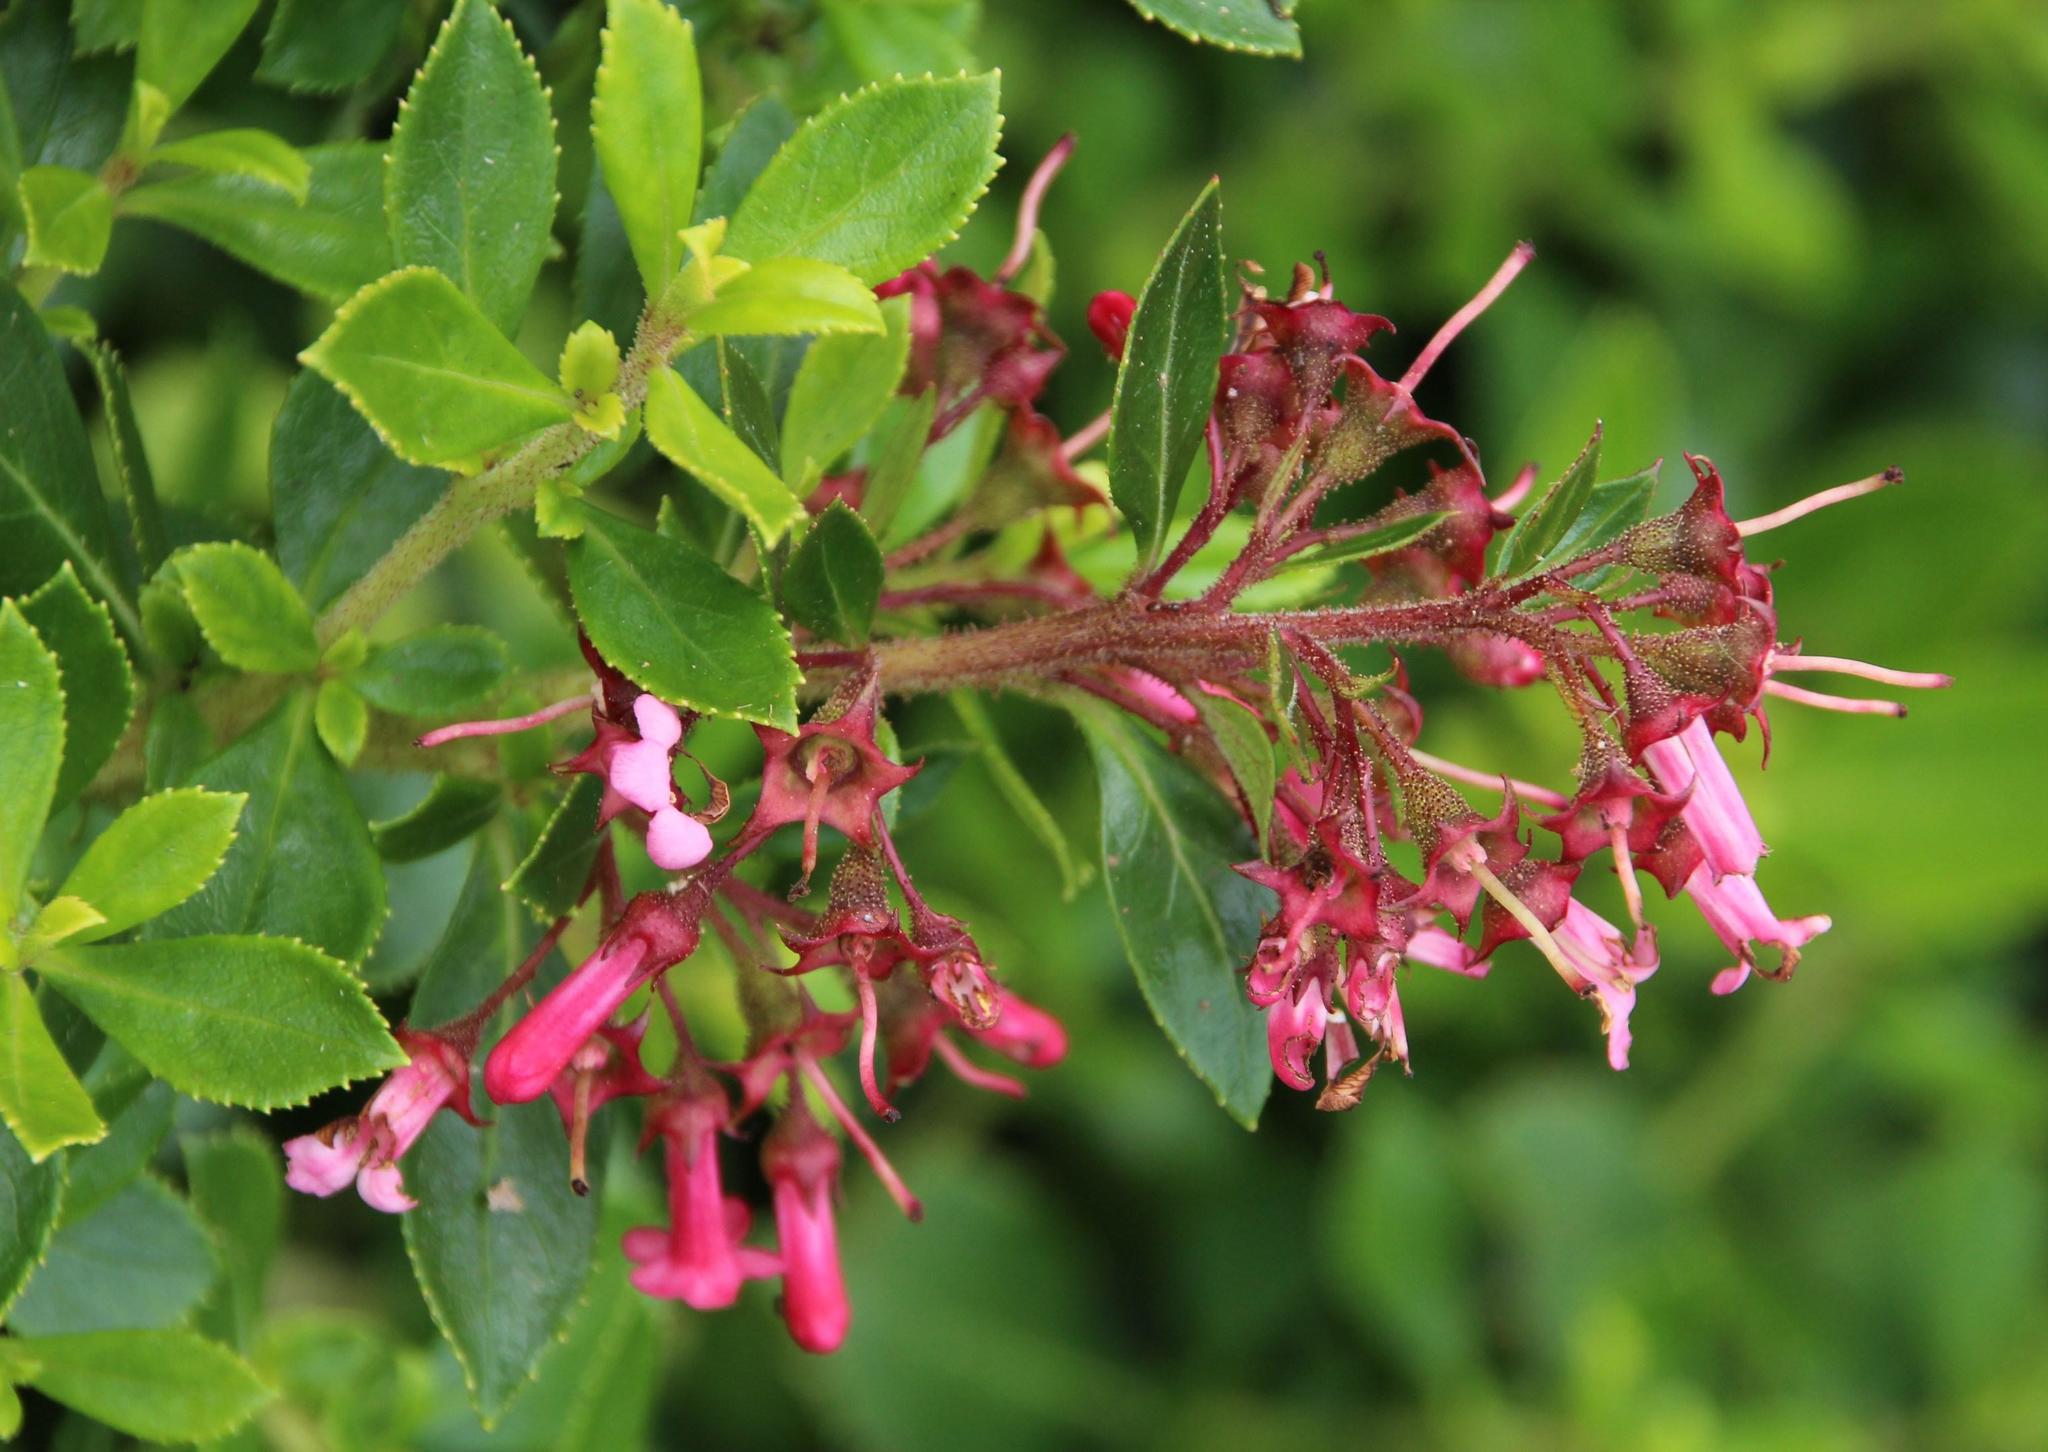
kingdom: Plantae
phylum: Tracheophyta
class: Magnoliopsida
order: Escalloniales
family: Escalloniaceae
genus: Escallonia
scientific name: Escallonia rubra
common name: Redclaws
